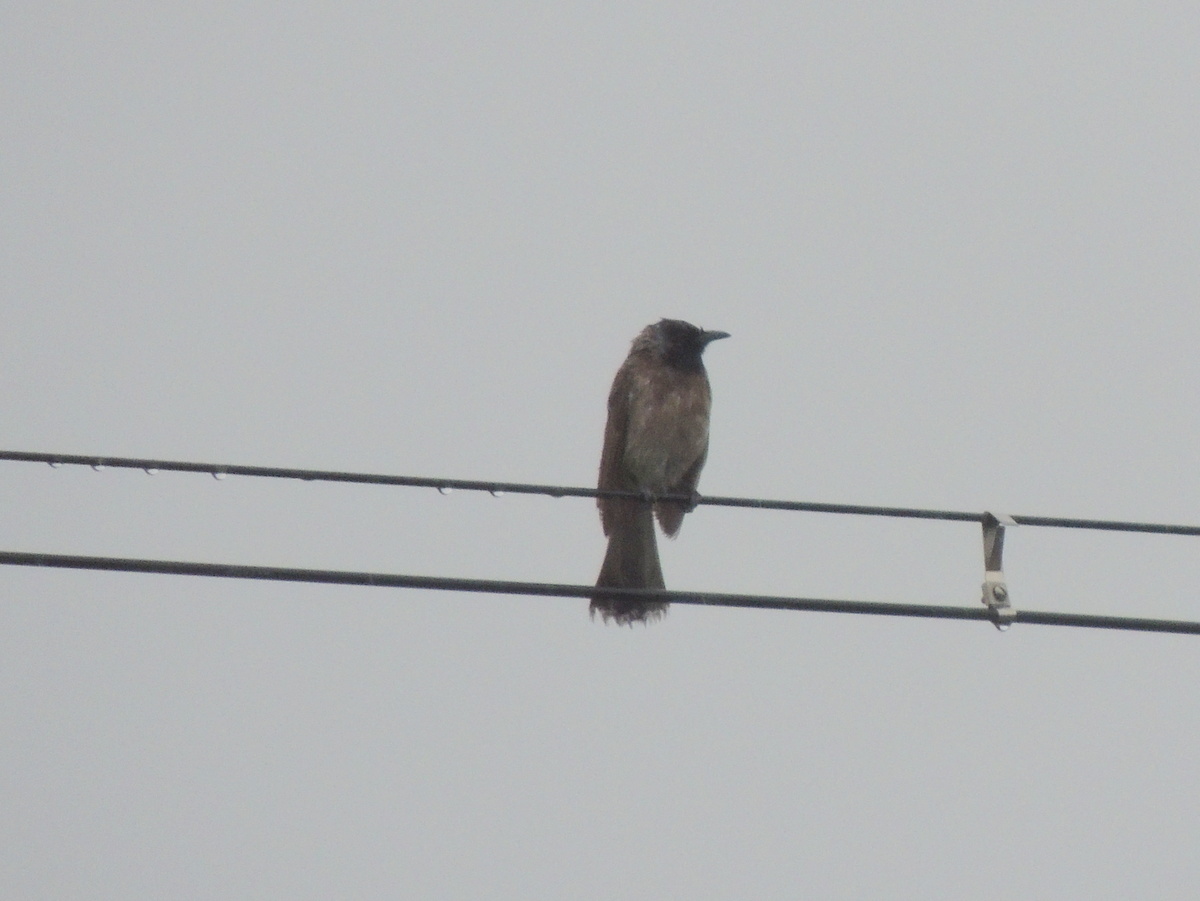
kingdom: Animalia
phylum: Chordata
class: Aves
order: Passeriformes
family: Pycnonotidae
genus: Pycnonotus
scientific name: Pycnonotus cafer
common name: Red-vented bulbul
